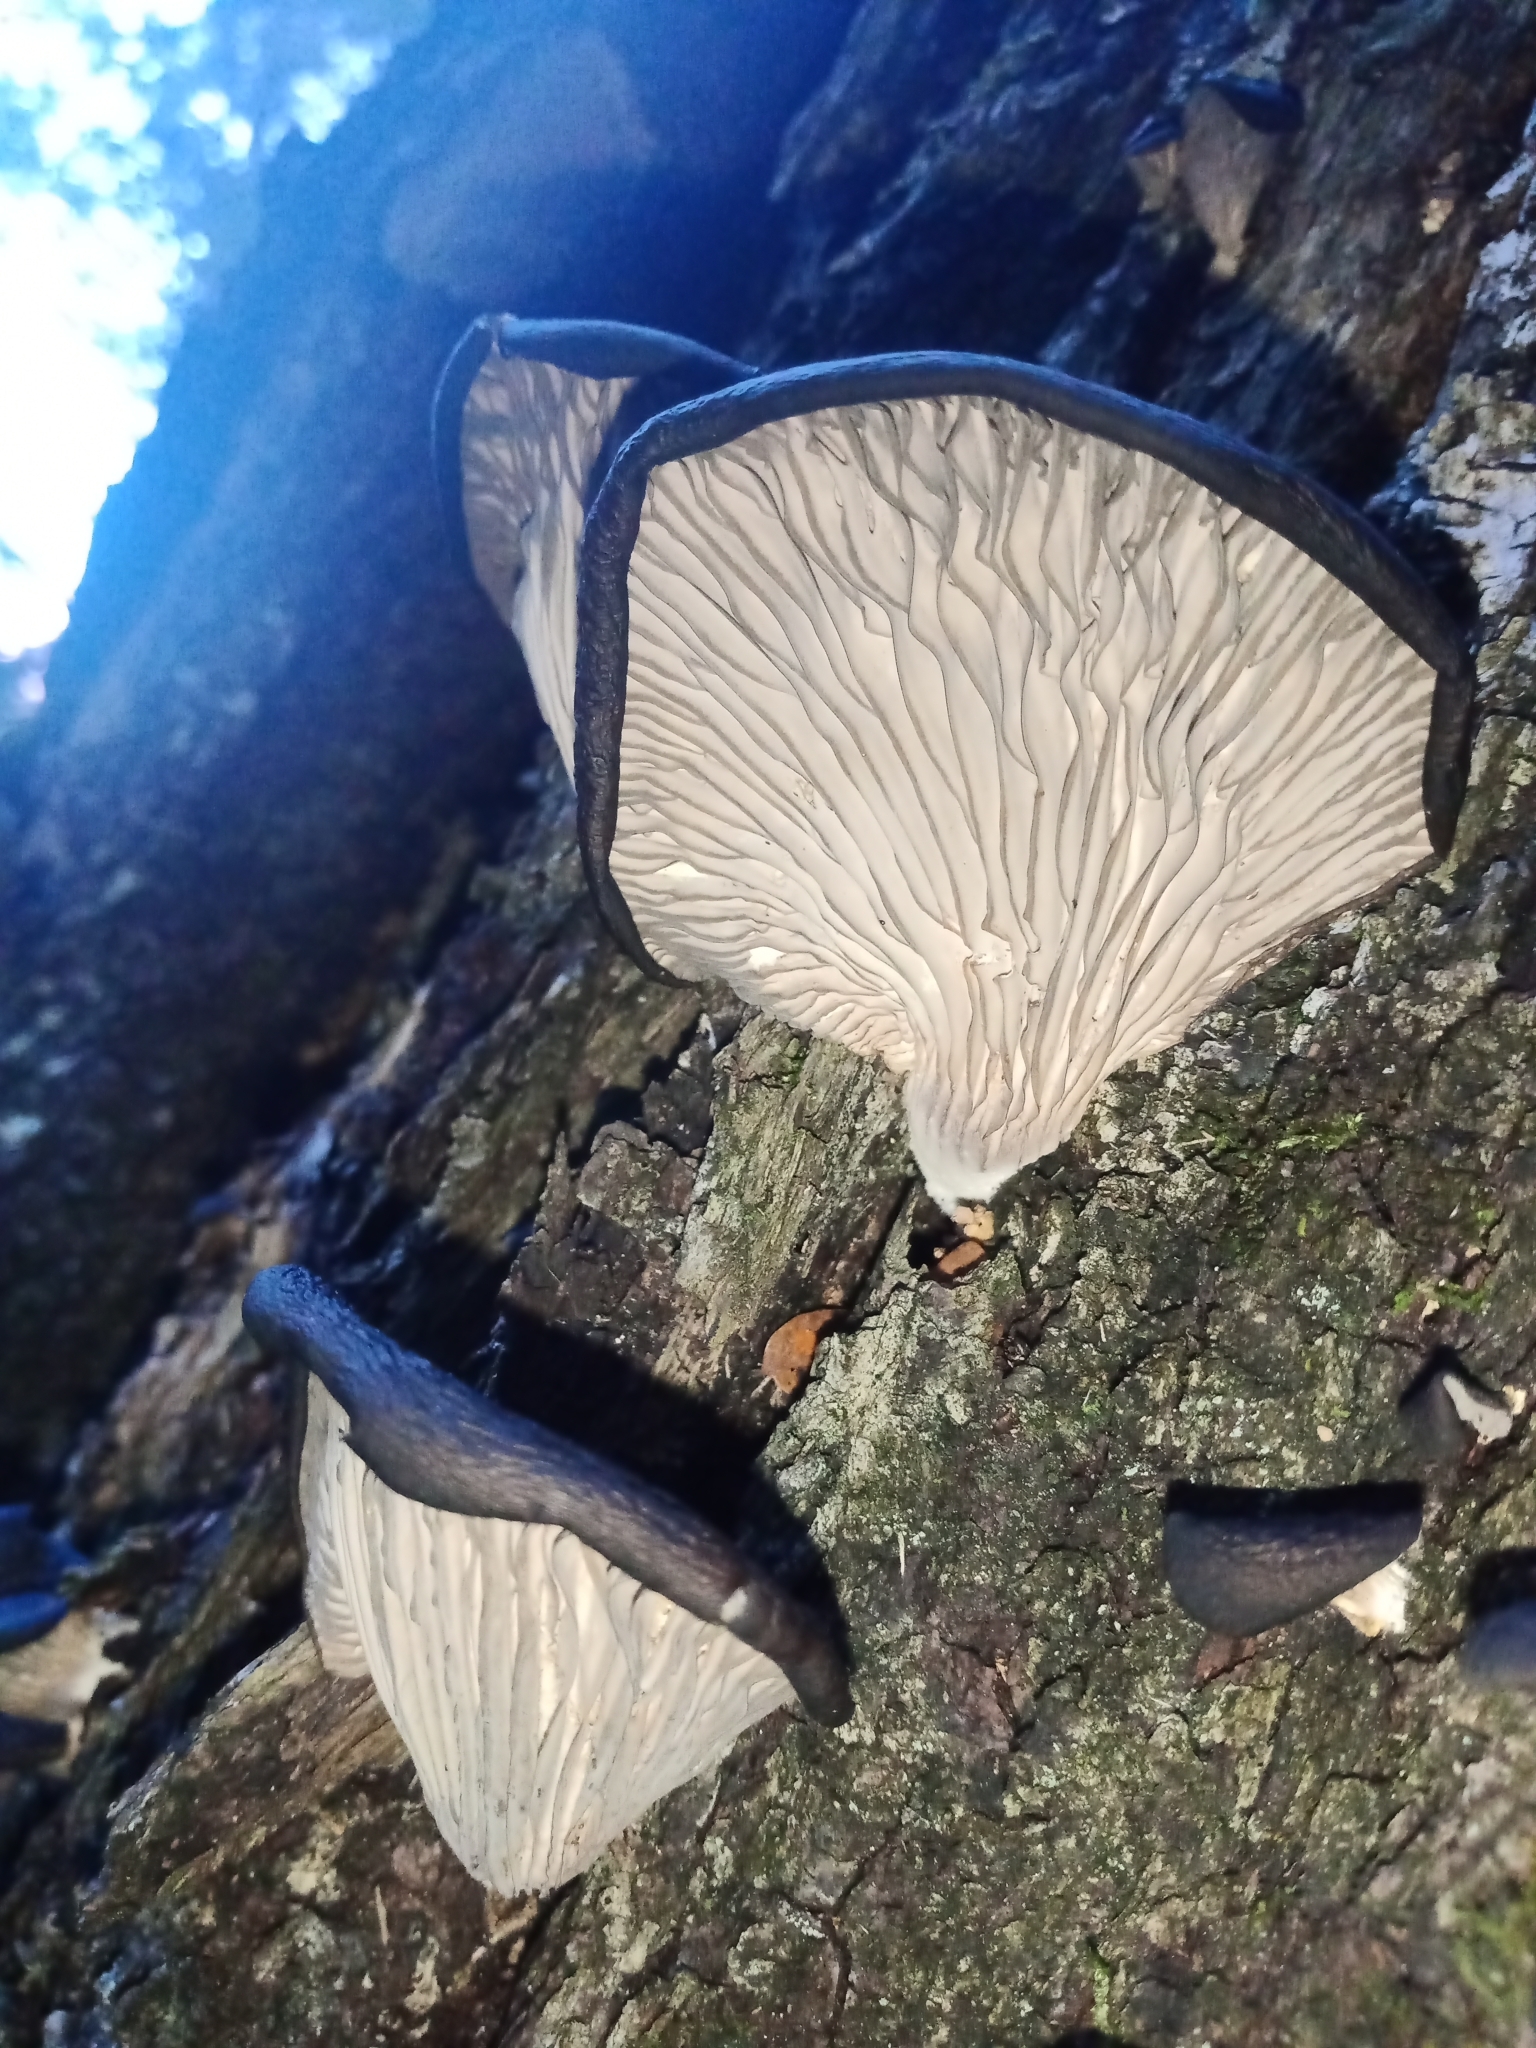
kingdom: Fungi
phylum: Basidiomycota
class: Agaricomycetes
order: Agaricales
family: Pleurotaceae
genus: Pleurotus
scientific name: Pleurotus purpureo-olivaceus
